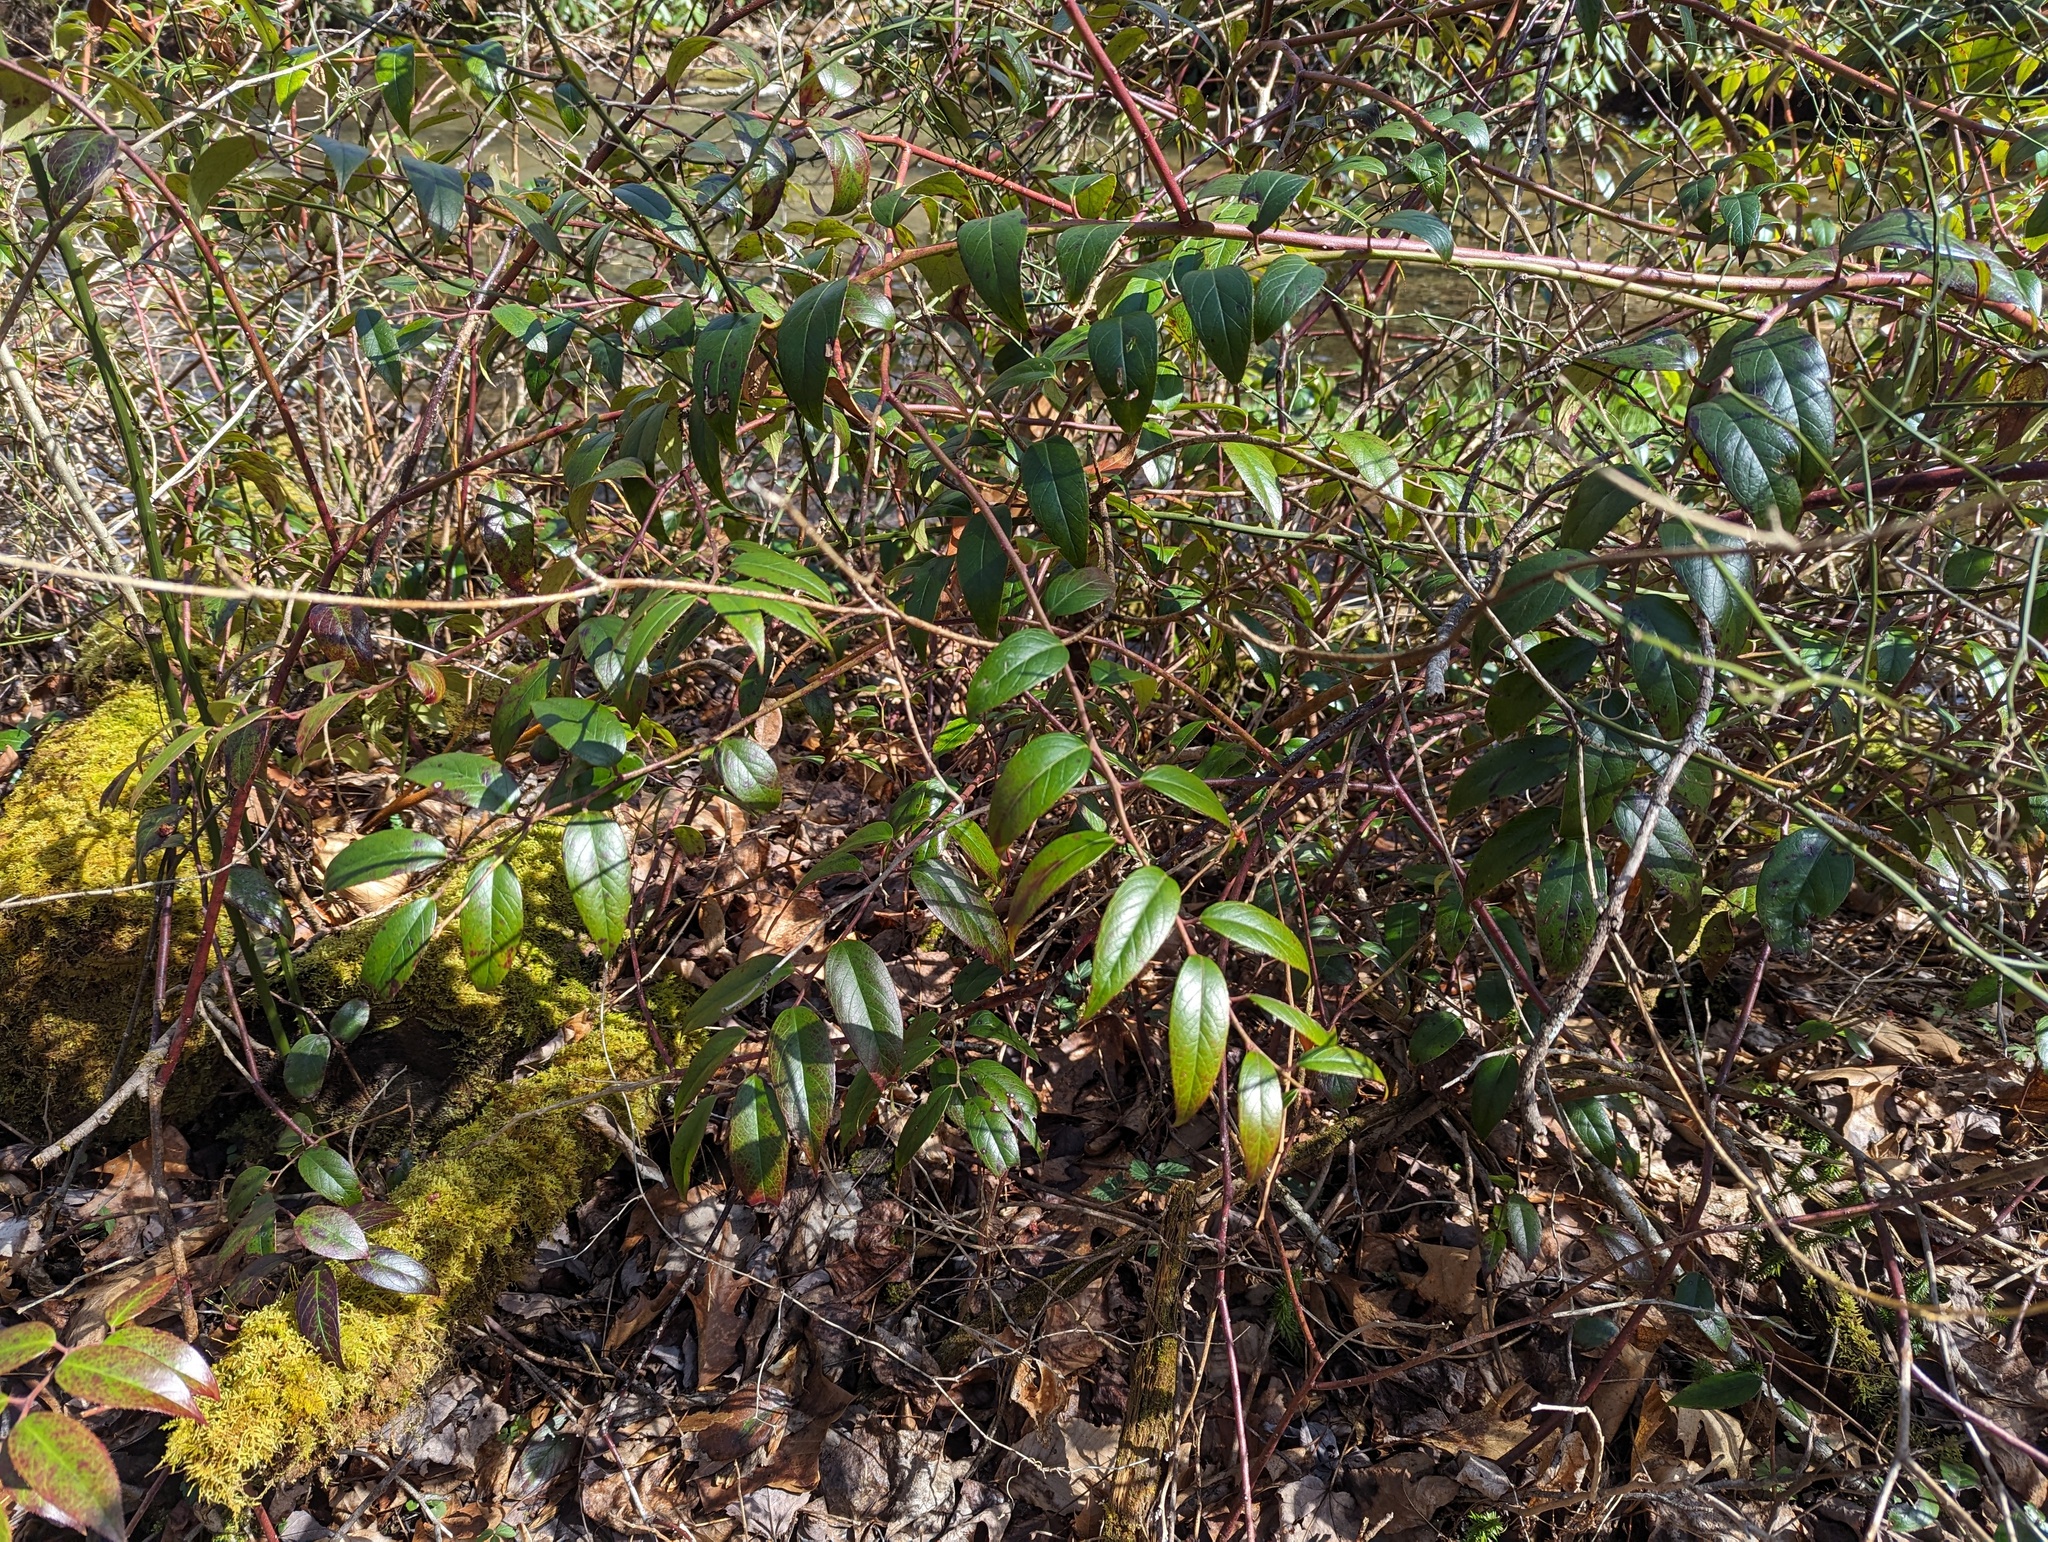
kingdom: Plantae
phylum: Tracheophyta
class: Magnoliopsida
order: Ericales
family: Ericaceae
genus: Leucothoe
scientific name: Leucothoe fontanesiana
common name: Fetterbush
